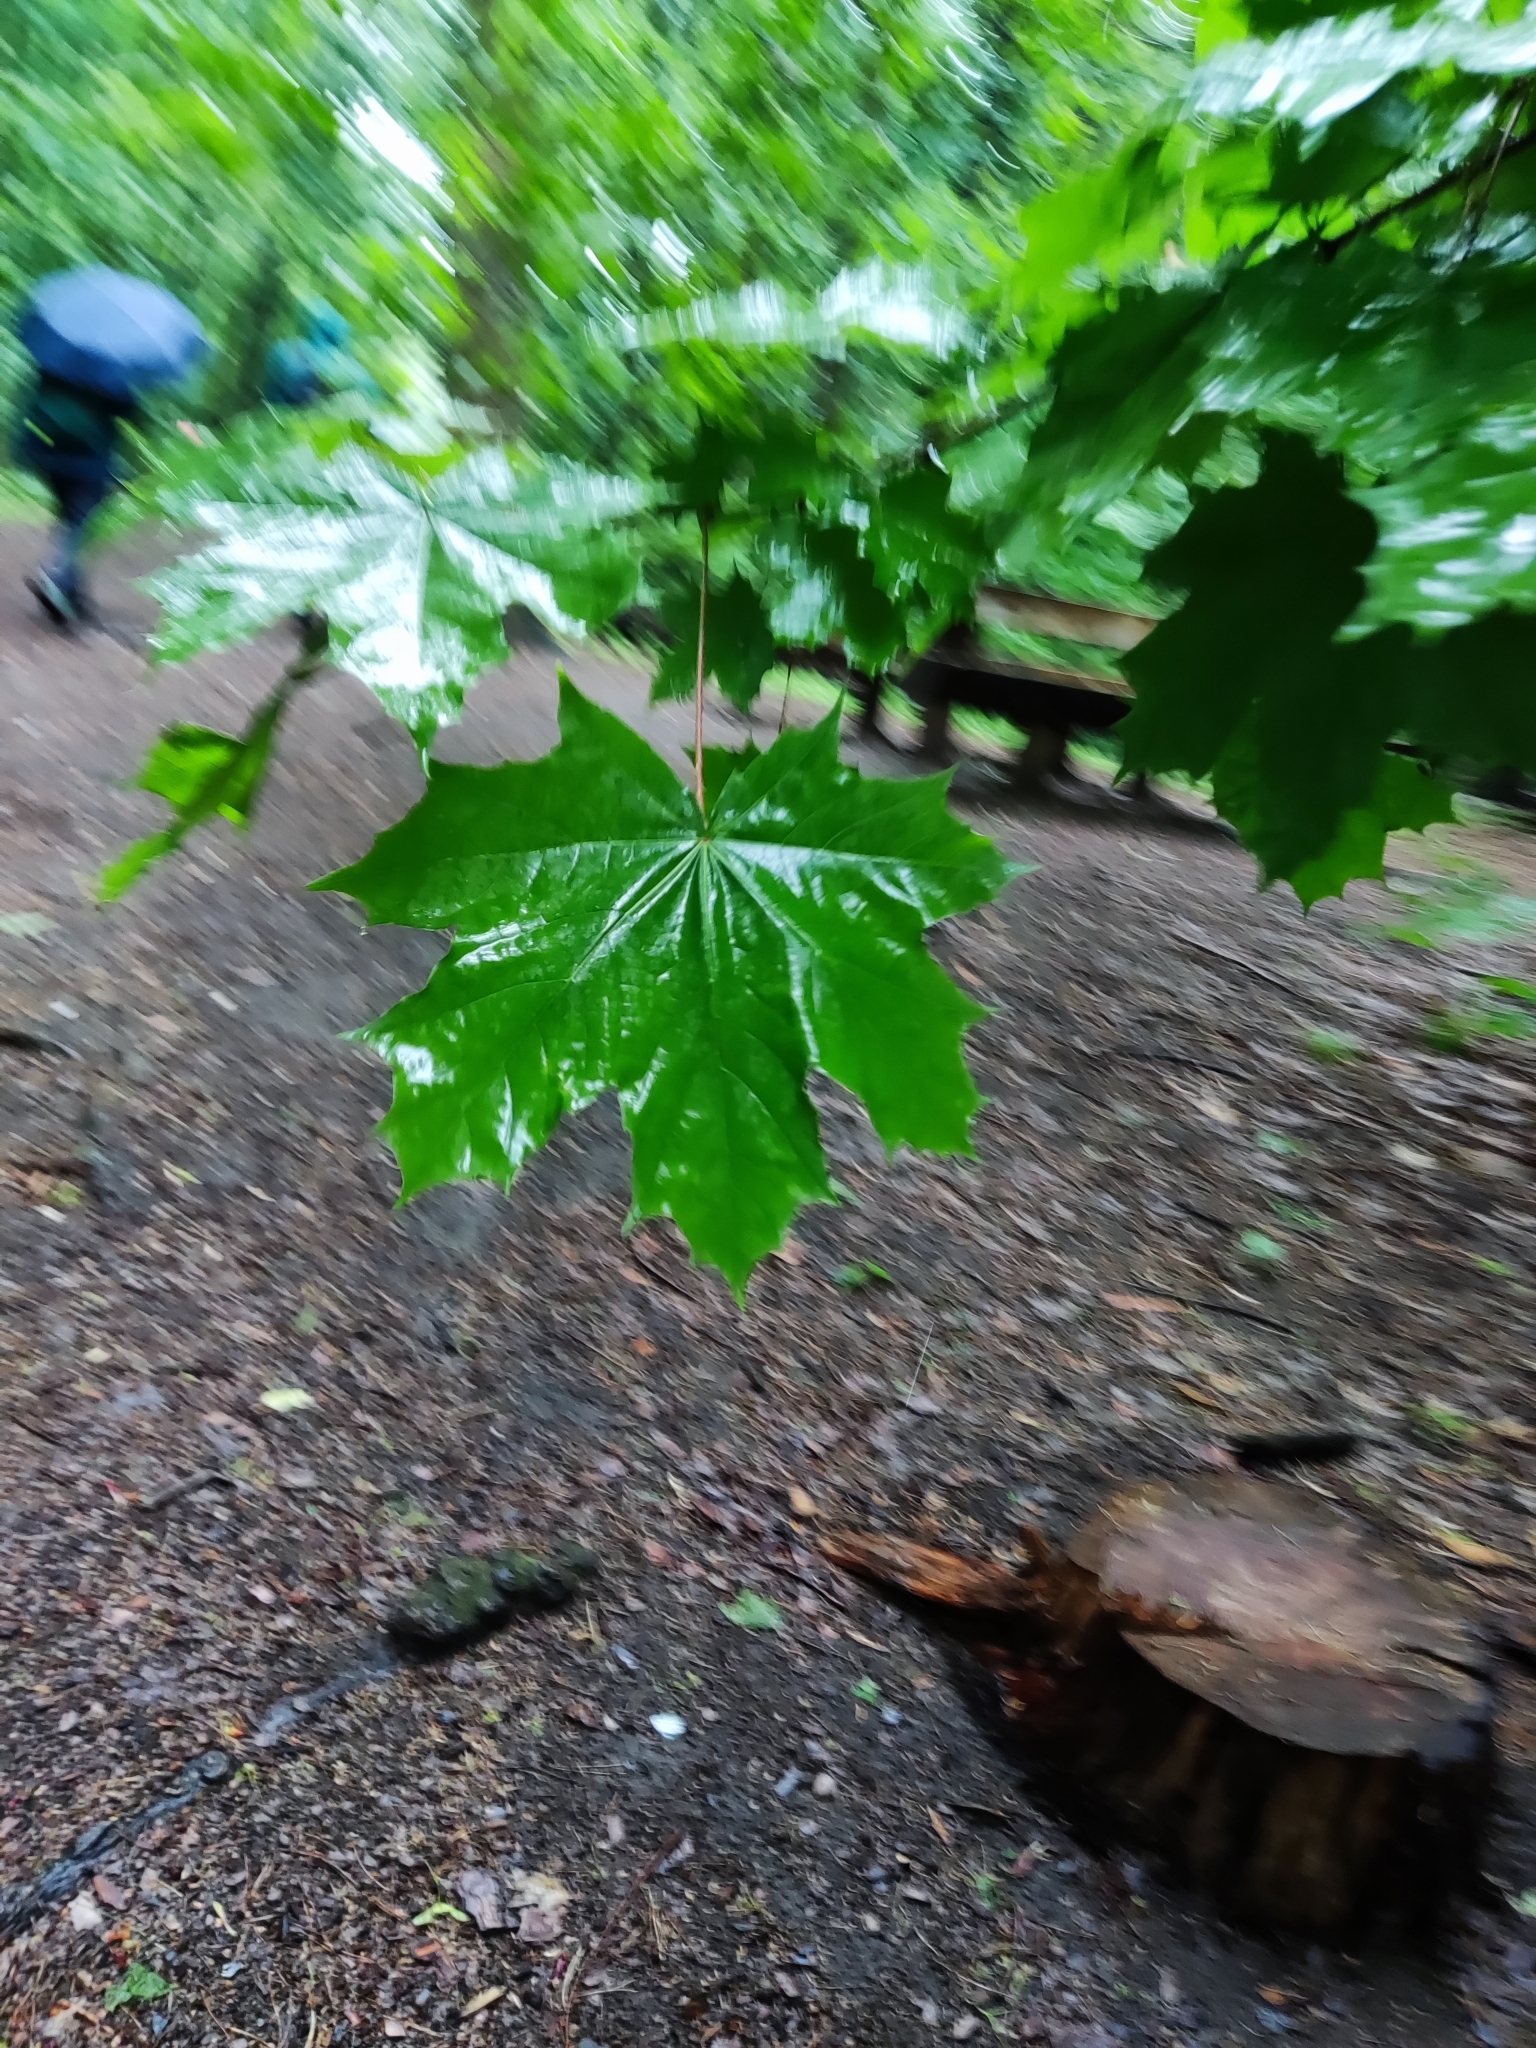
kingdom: Plantae
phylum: Tracheophyta
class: Magnoliopsida
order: Sapindales
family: Sapindaceae
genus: Acer
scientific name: Acer platanoides
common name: Norway maple
